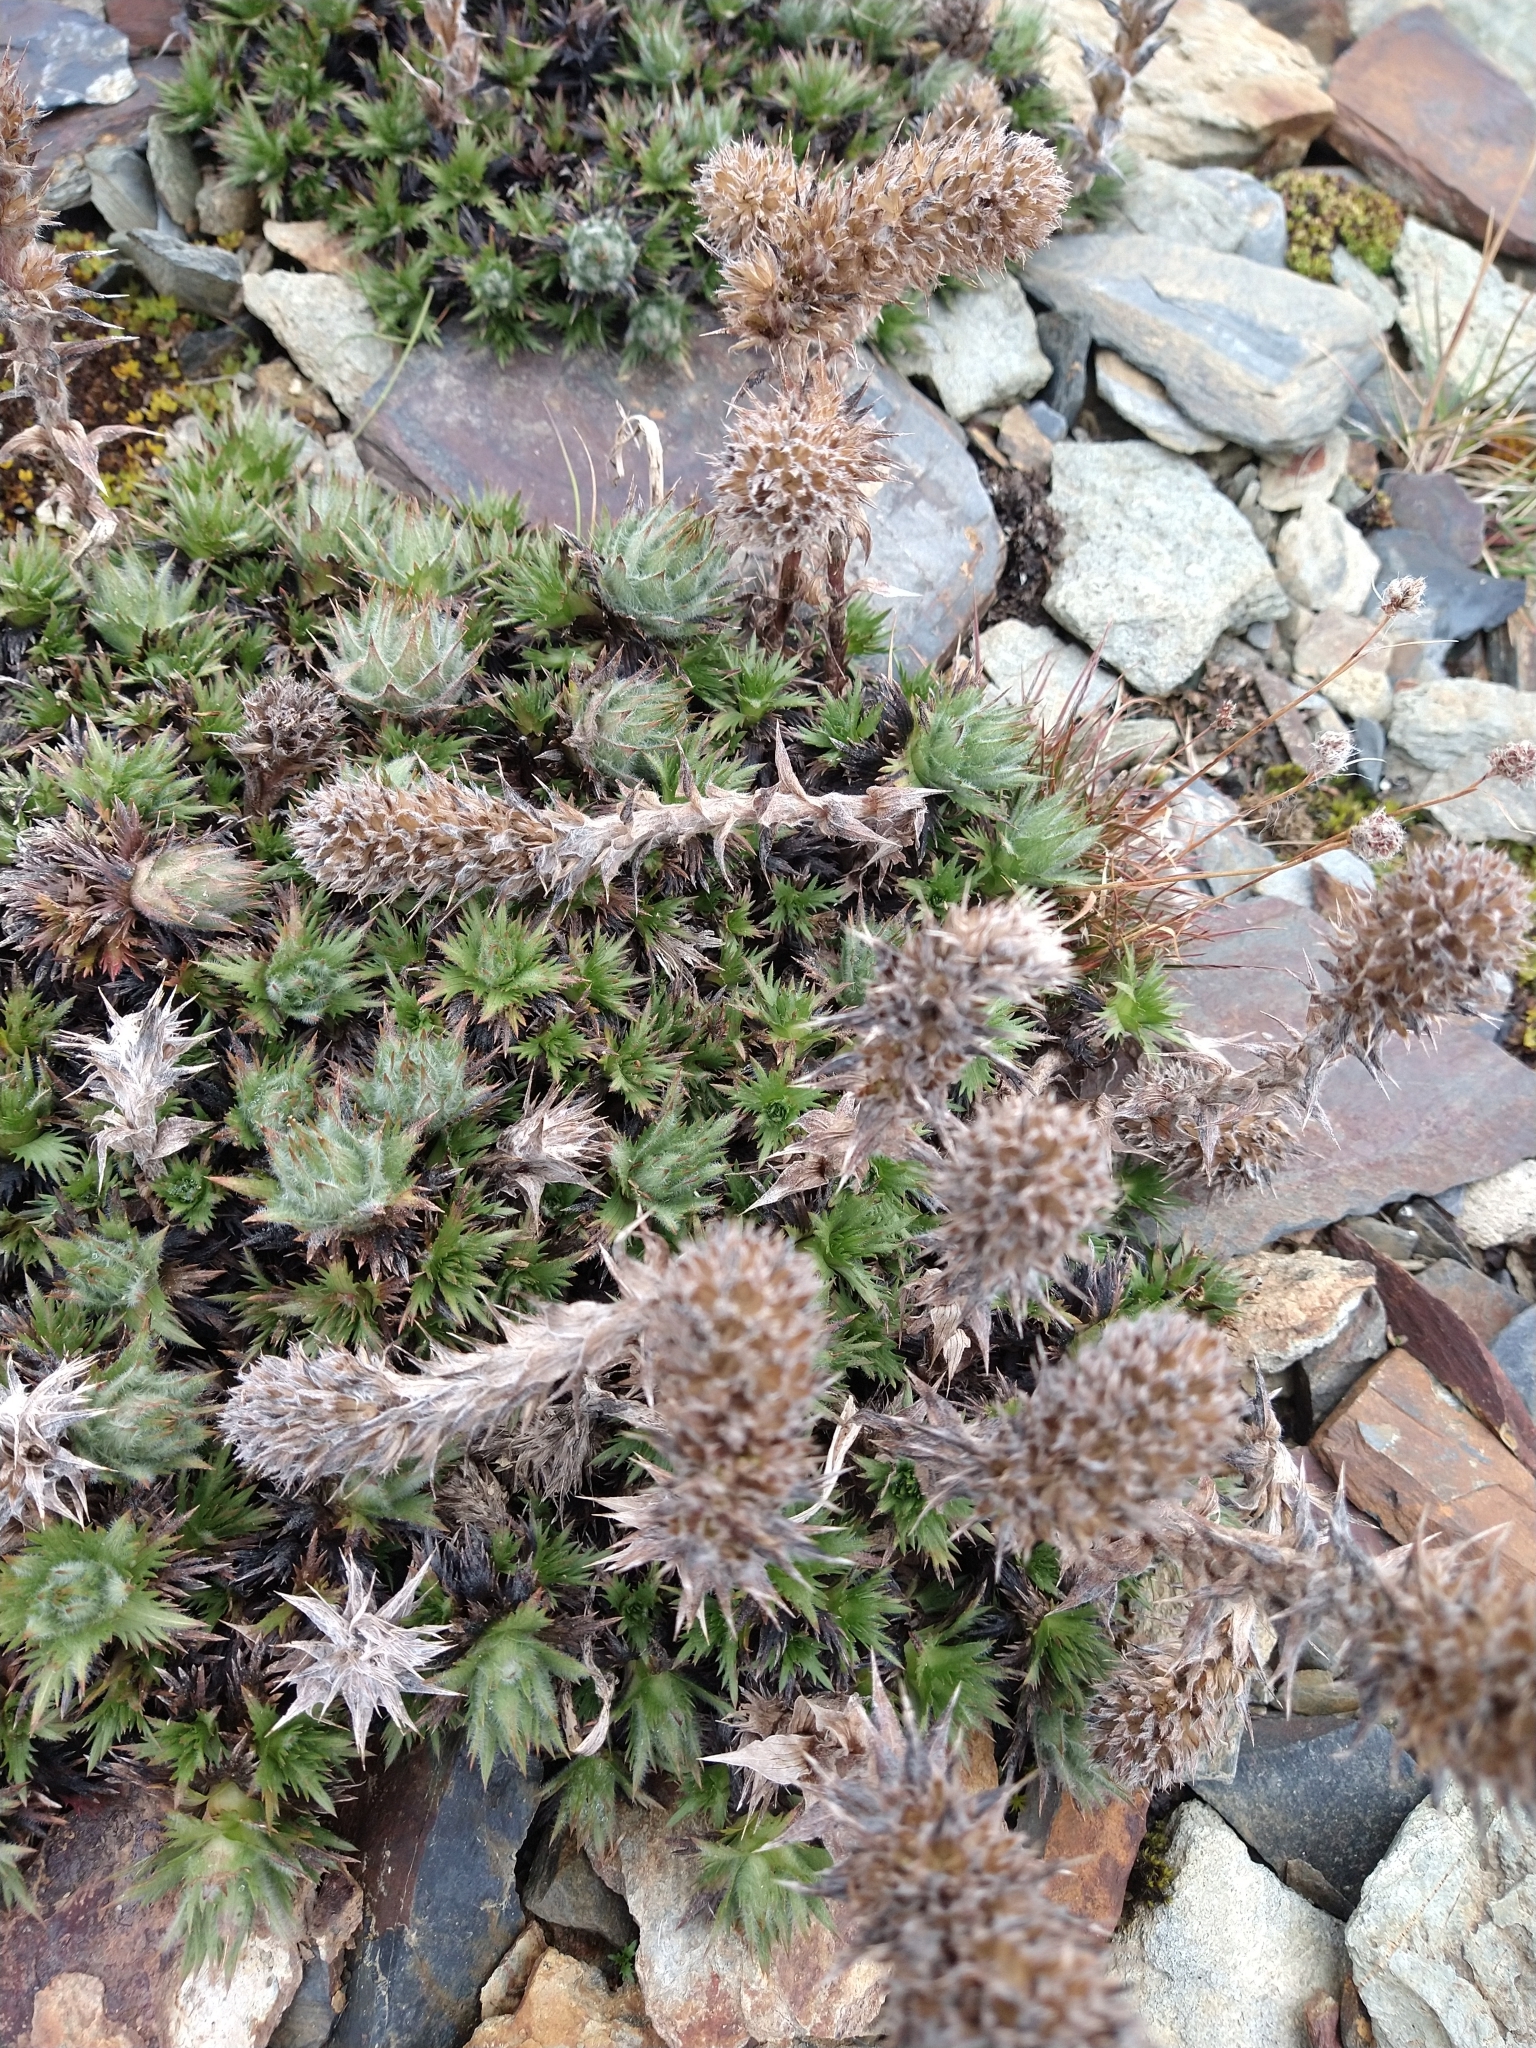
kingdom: Plantae
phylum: Tracheophyta
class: Magnoliopsida
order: Asterales
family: Asteraceae
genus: Nassauvia
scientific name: Nassauvia magellanica
